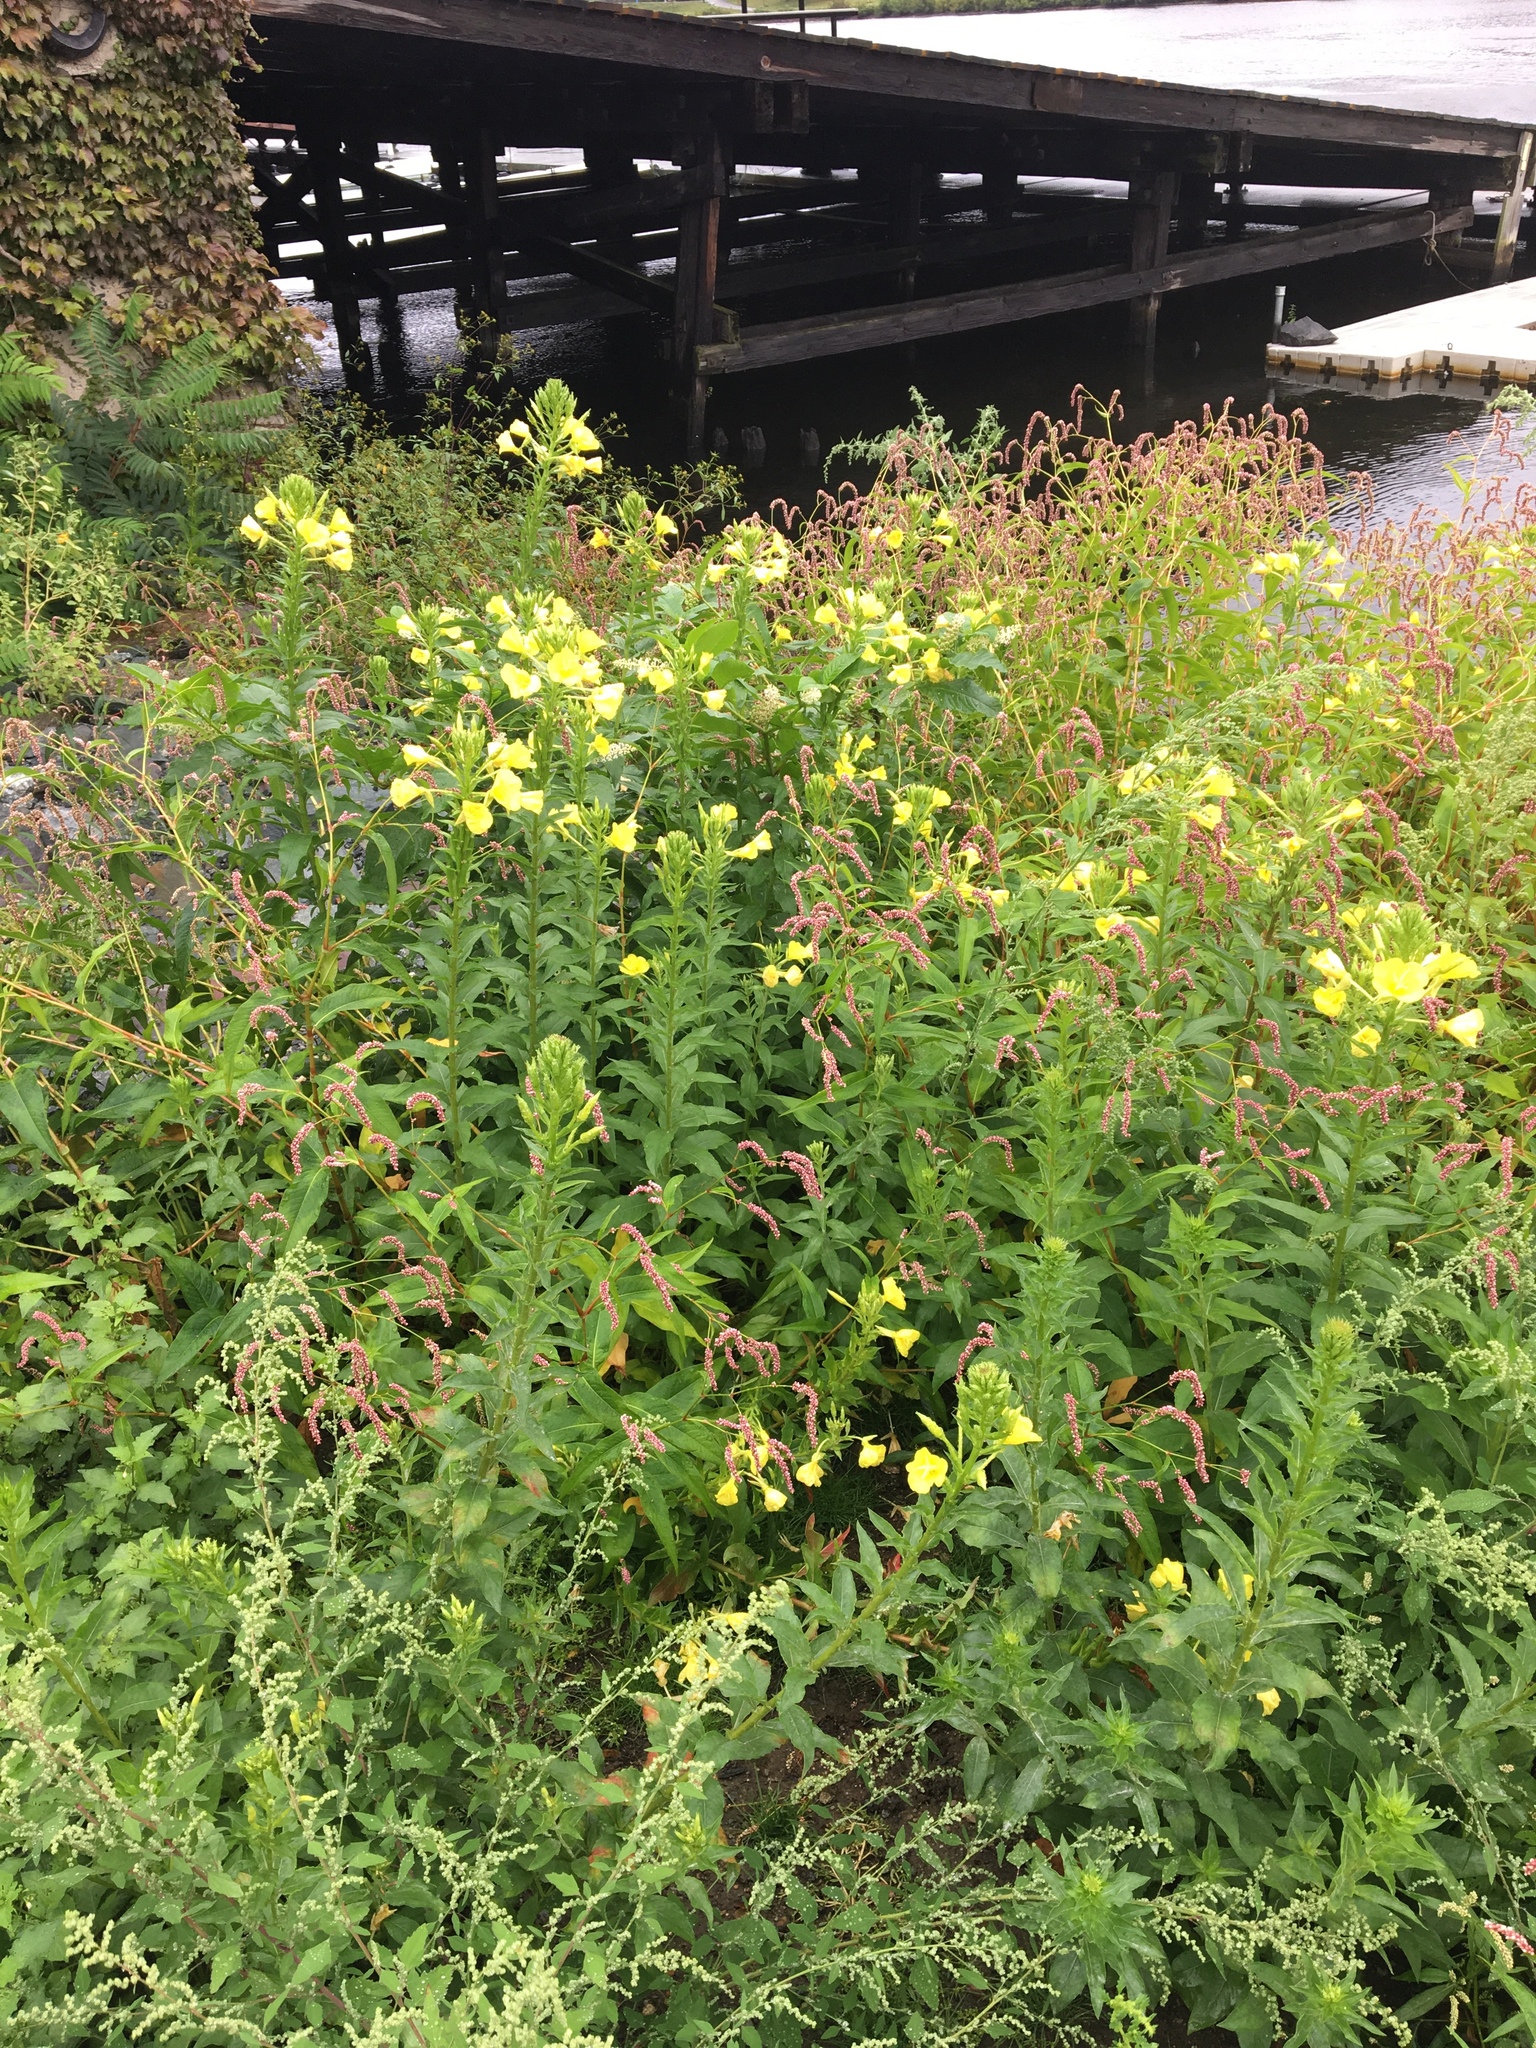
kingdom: Plantae
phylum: Tracheophyta
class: Magnoliopsida
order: Myrtales
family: Onagraceae
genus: Oenothera
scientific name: Oenothera biennis
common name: Common evening-primrose
